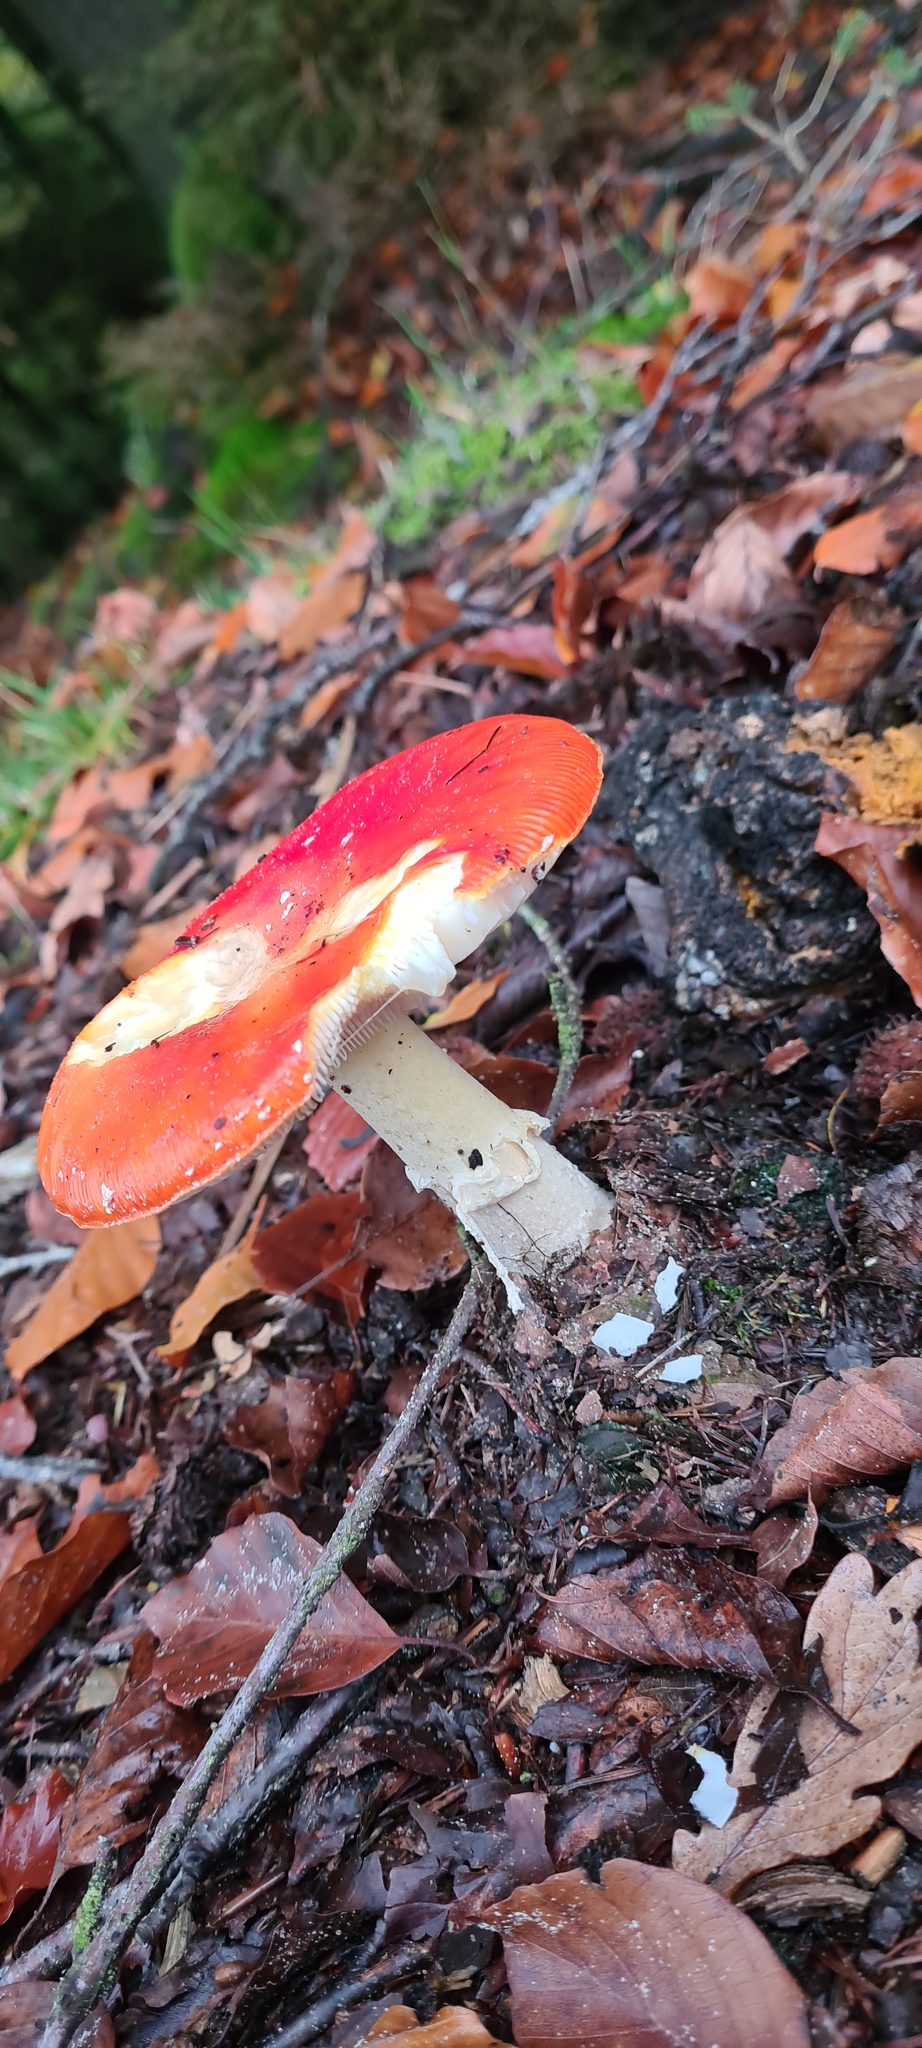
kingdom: Fungi
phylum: Basidiomycota
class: Agaricomycetes
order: Agaricales
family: Amanitaceae
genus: Amanita
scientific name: Amanita muscaria
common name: Fly agaric
